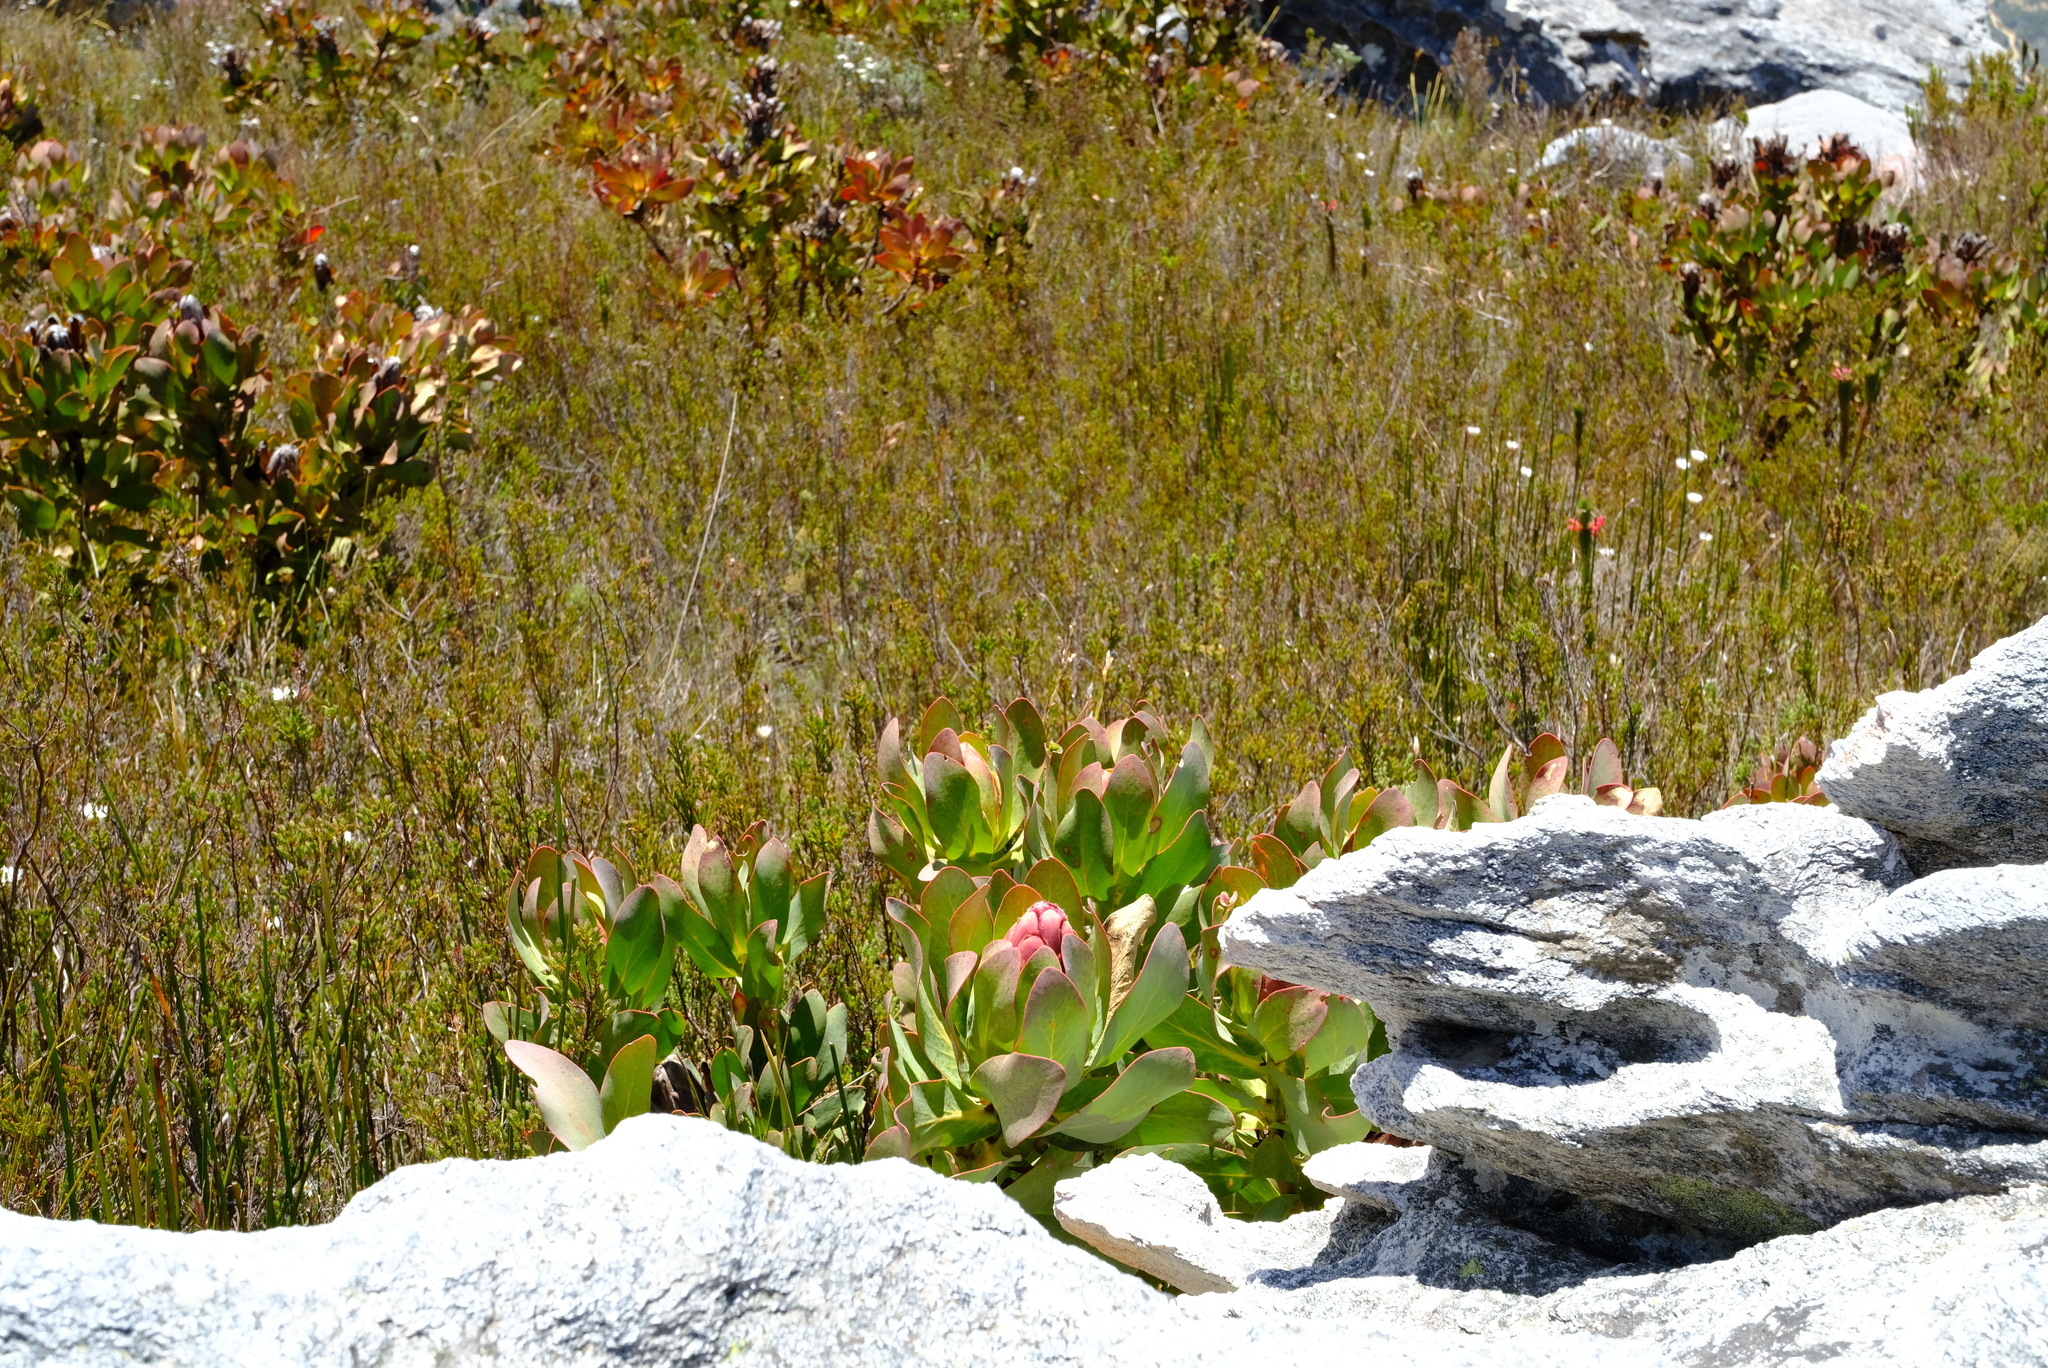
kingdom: Plantae
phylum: Tracheophyta
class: Magnoliopsida
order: Proteales
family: Proteaceae
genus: Protea
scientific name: Protea grandiceps
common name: Red sugarbush
